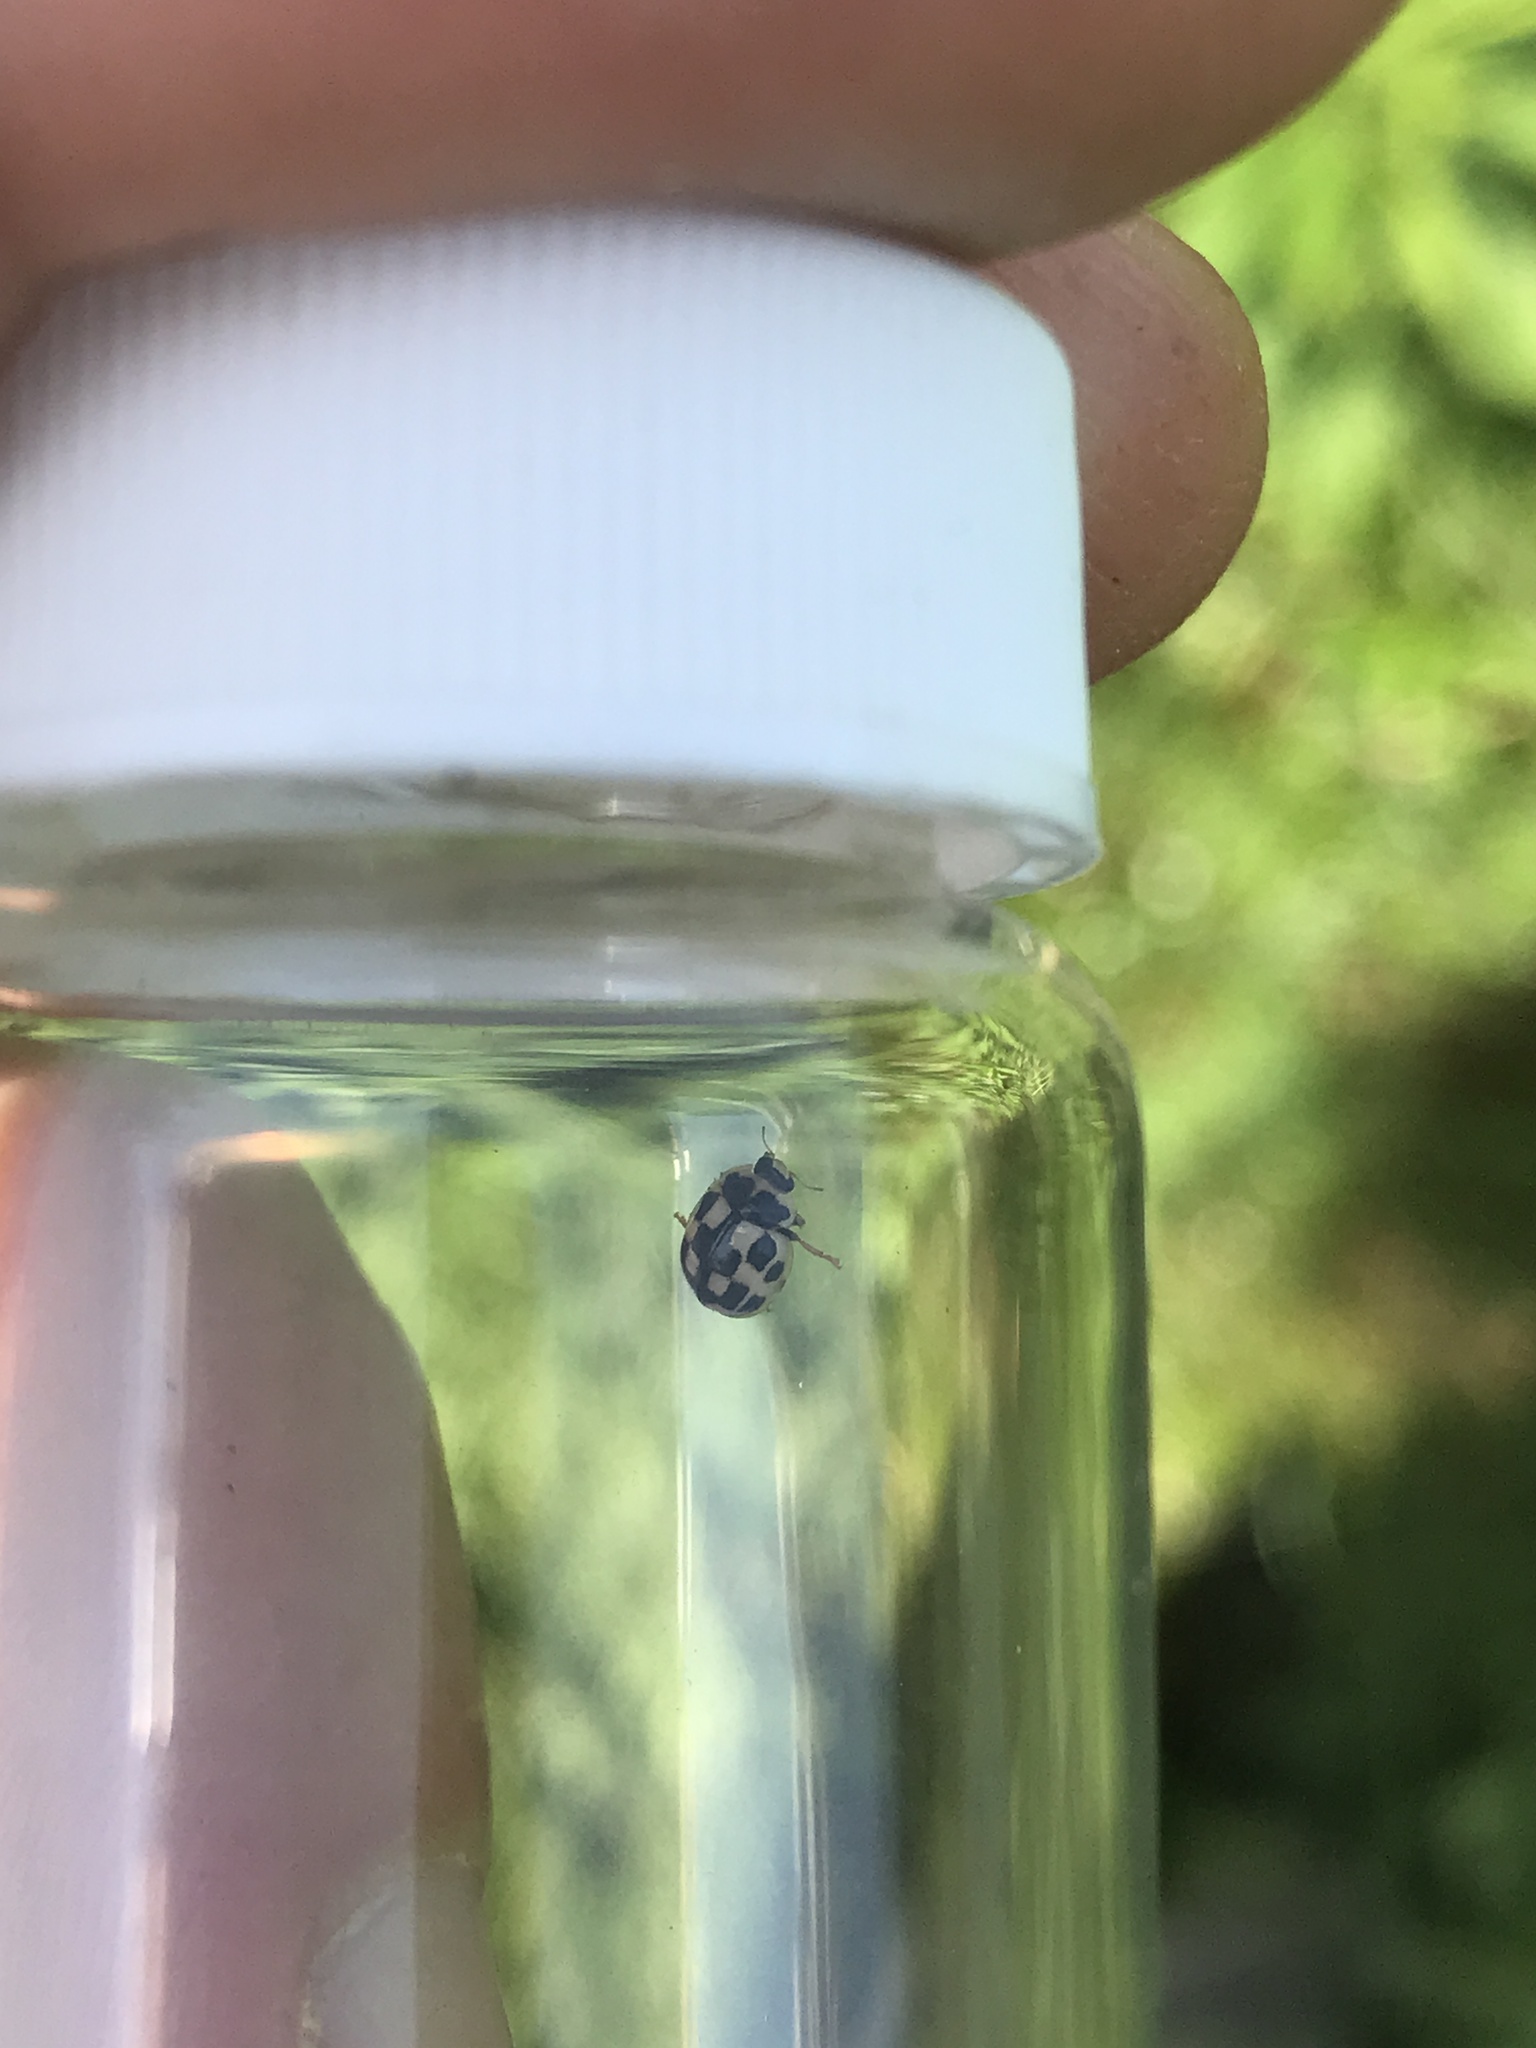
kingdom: Animalia
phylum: Arthropoda
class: Insecta
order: Coleoptera
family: Coccinellidae
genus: Propylaea
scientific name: Propylaea quatuordecimpunctata
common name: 14-spotted ladybird beetle
